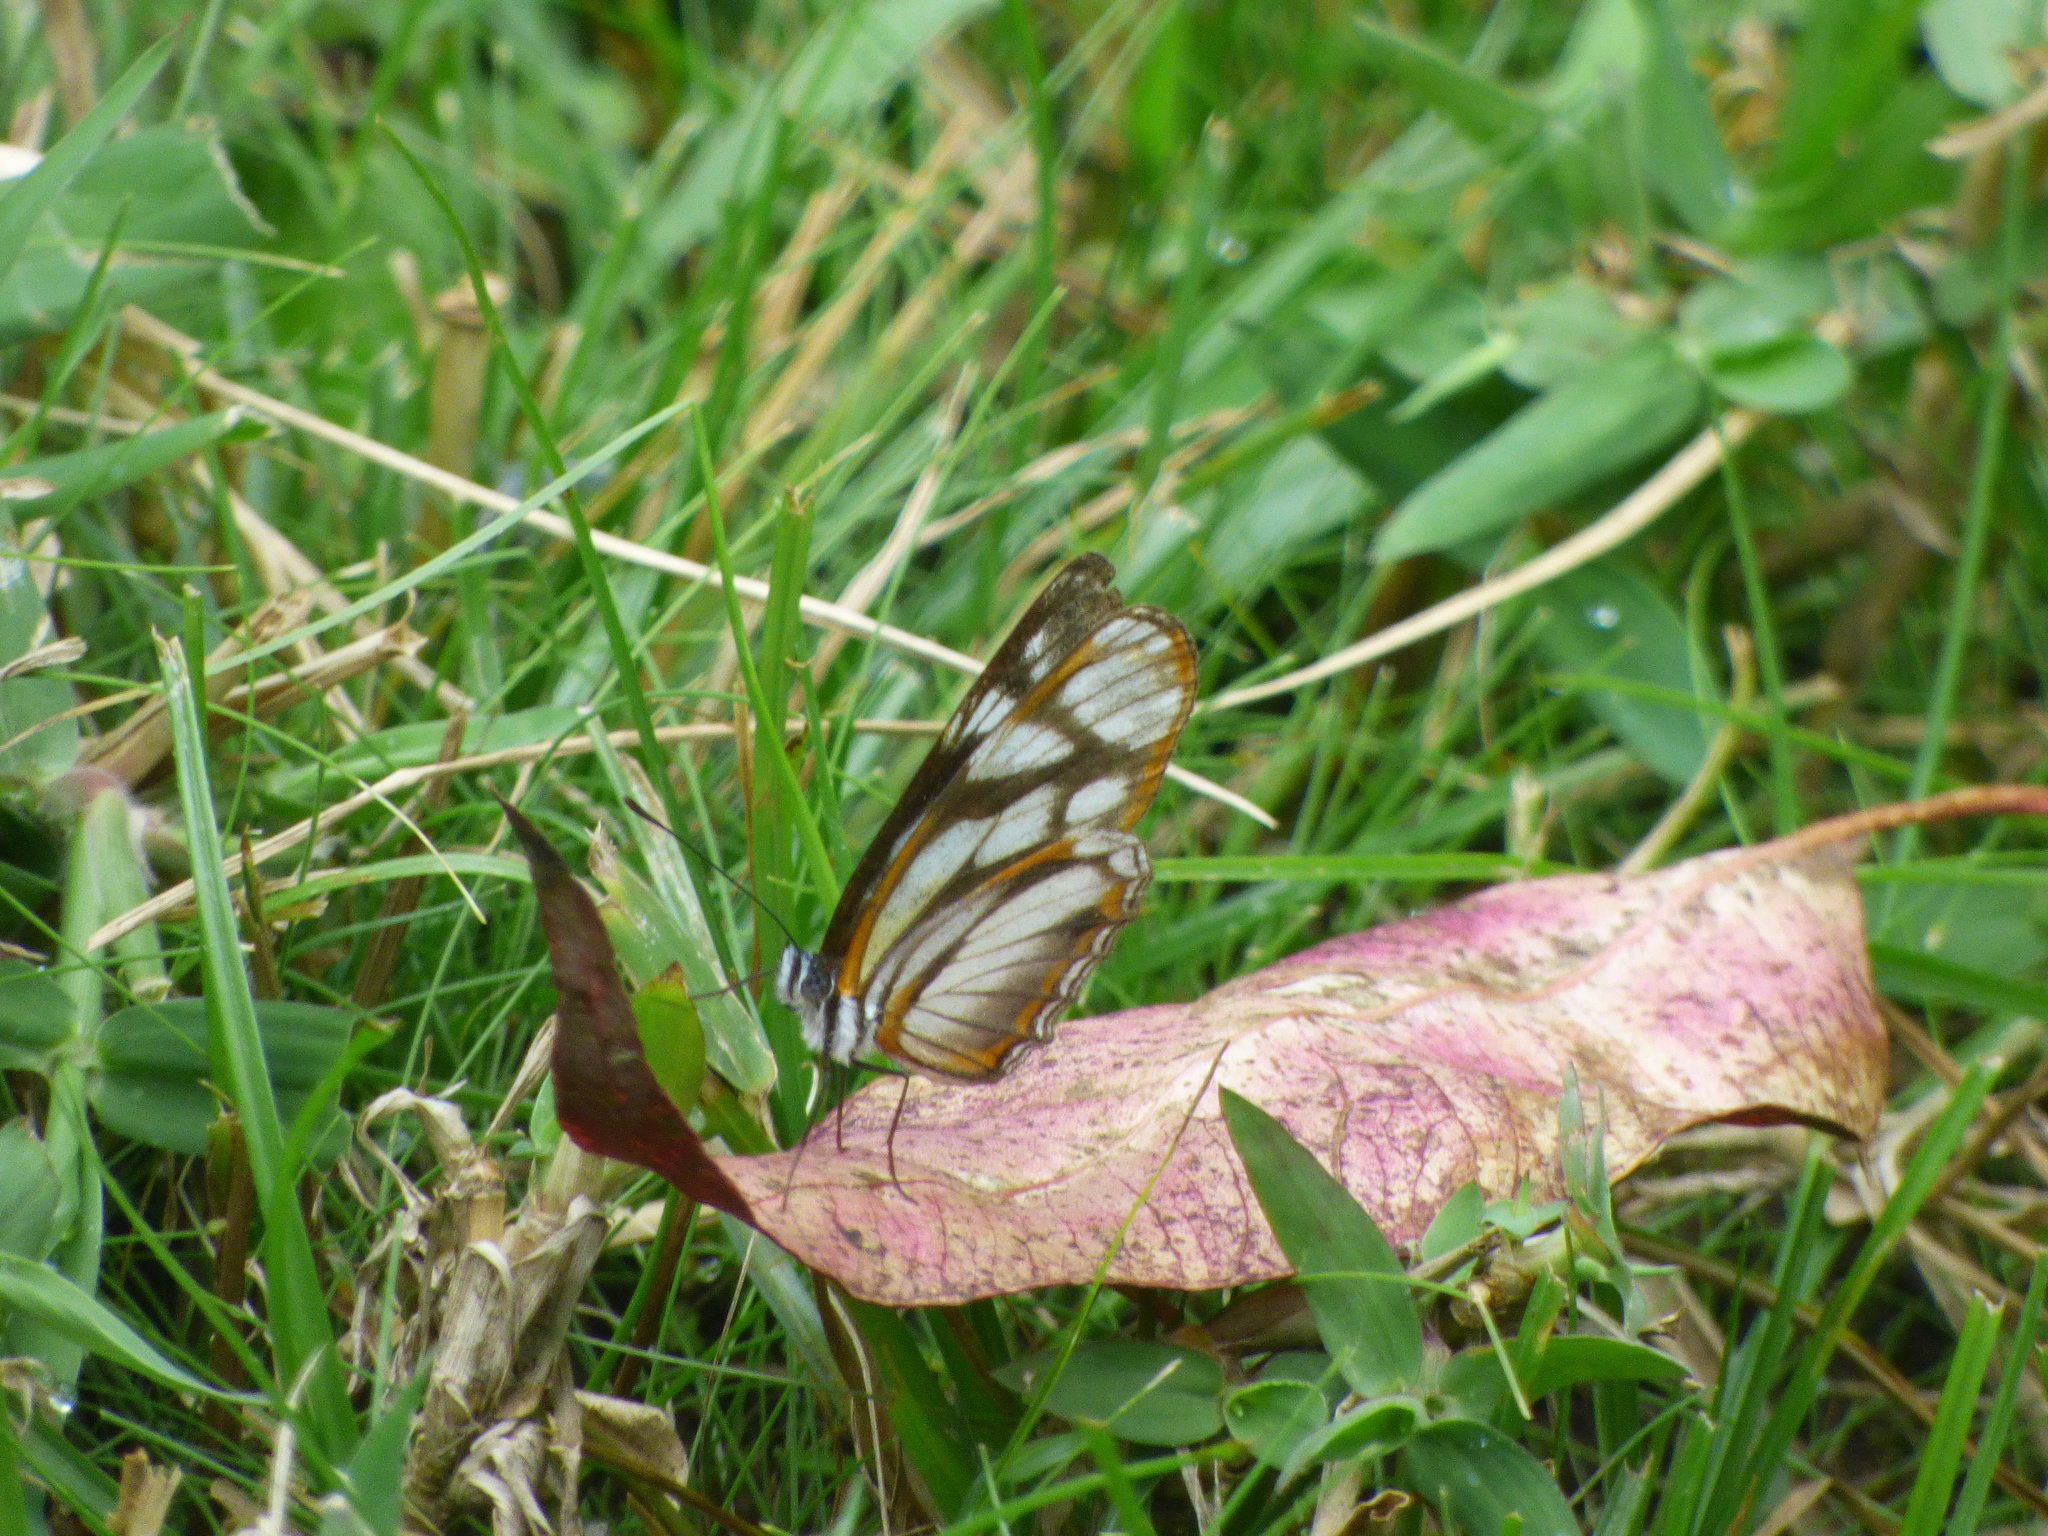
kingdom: Animalia
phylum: Arthropoda
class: Insecta
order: Lepidoptera
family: Nymphalidae
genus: Eresia
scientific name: Eresia letitia
